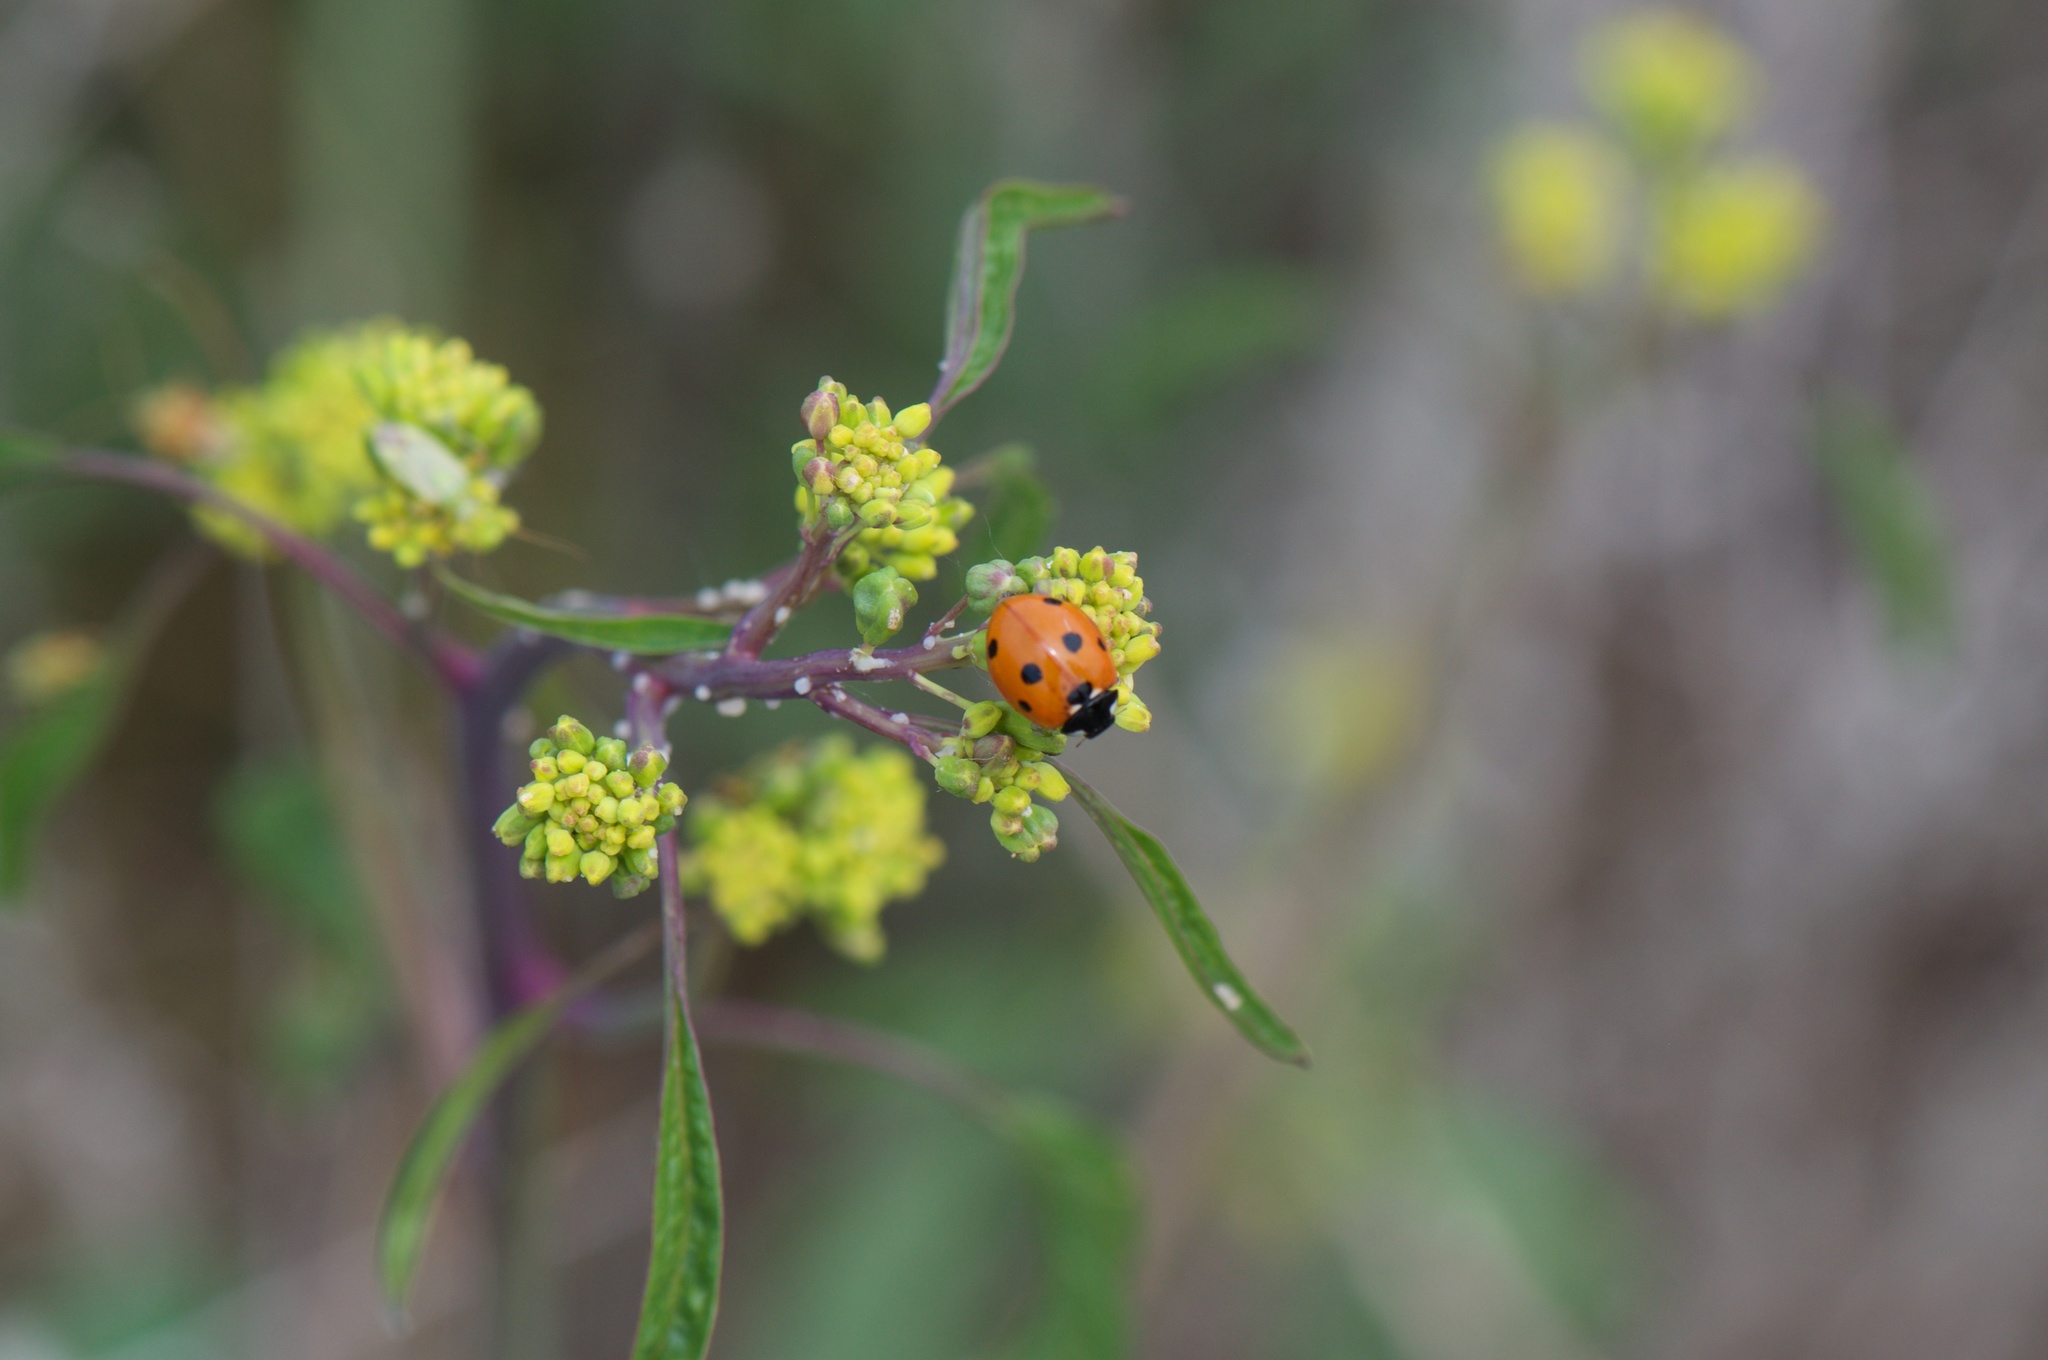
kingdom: Animalia
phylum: Arthropoda
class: Insecta
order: Coleoptera
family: Coccinellidae
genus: Coccinella
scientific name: Coccinella septempunctata
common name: Sevenspotted lady beetle
